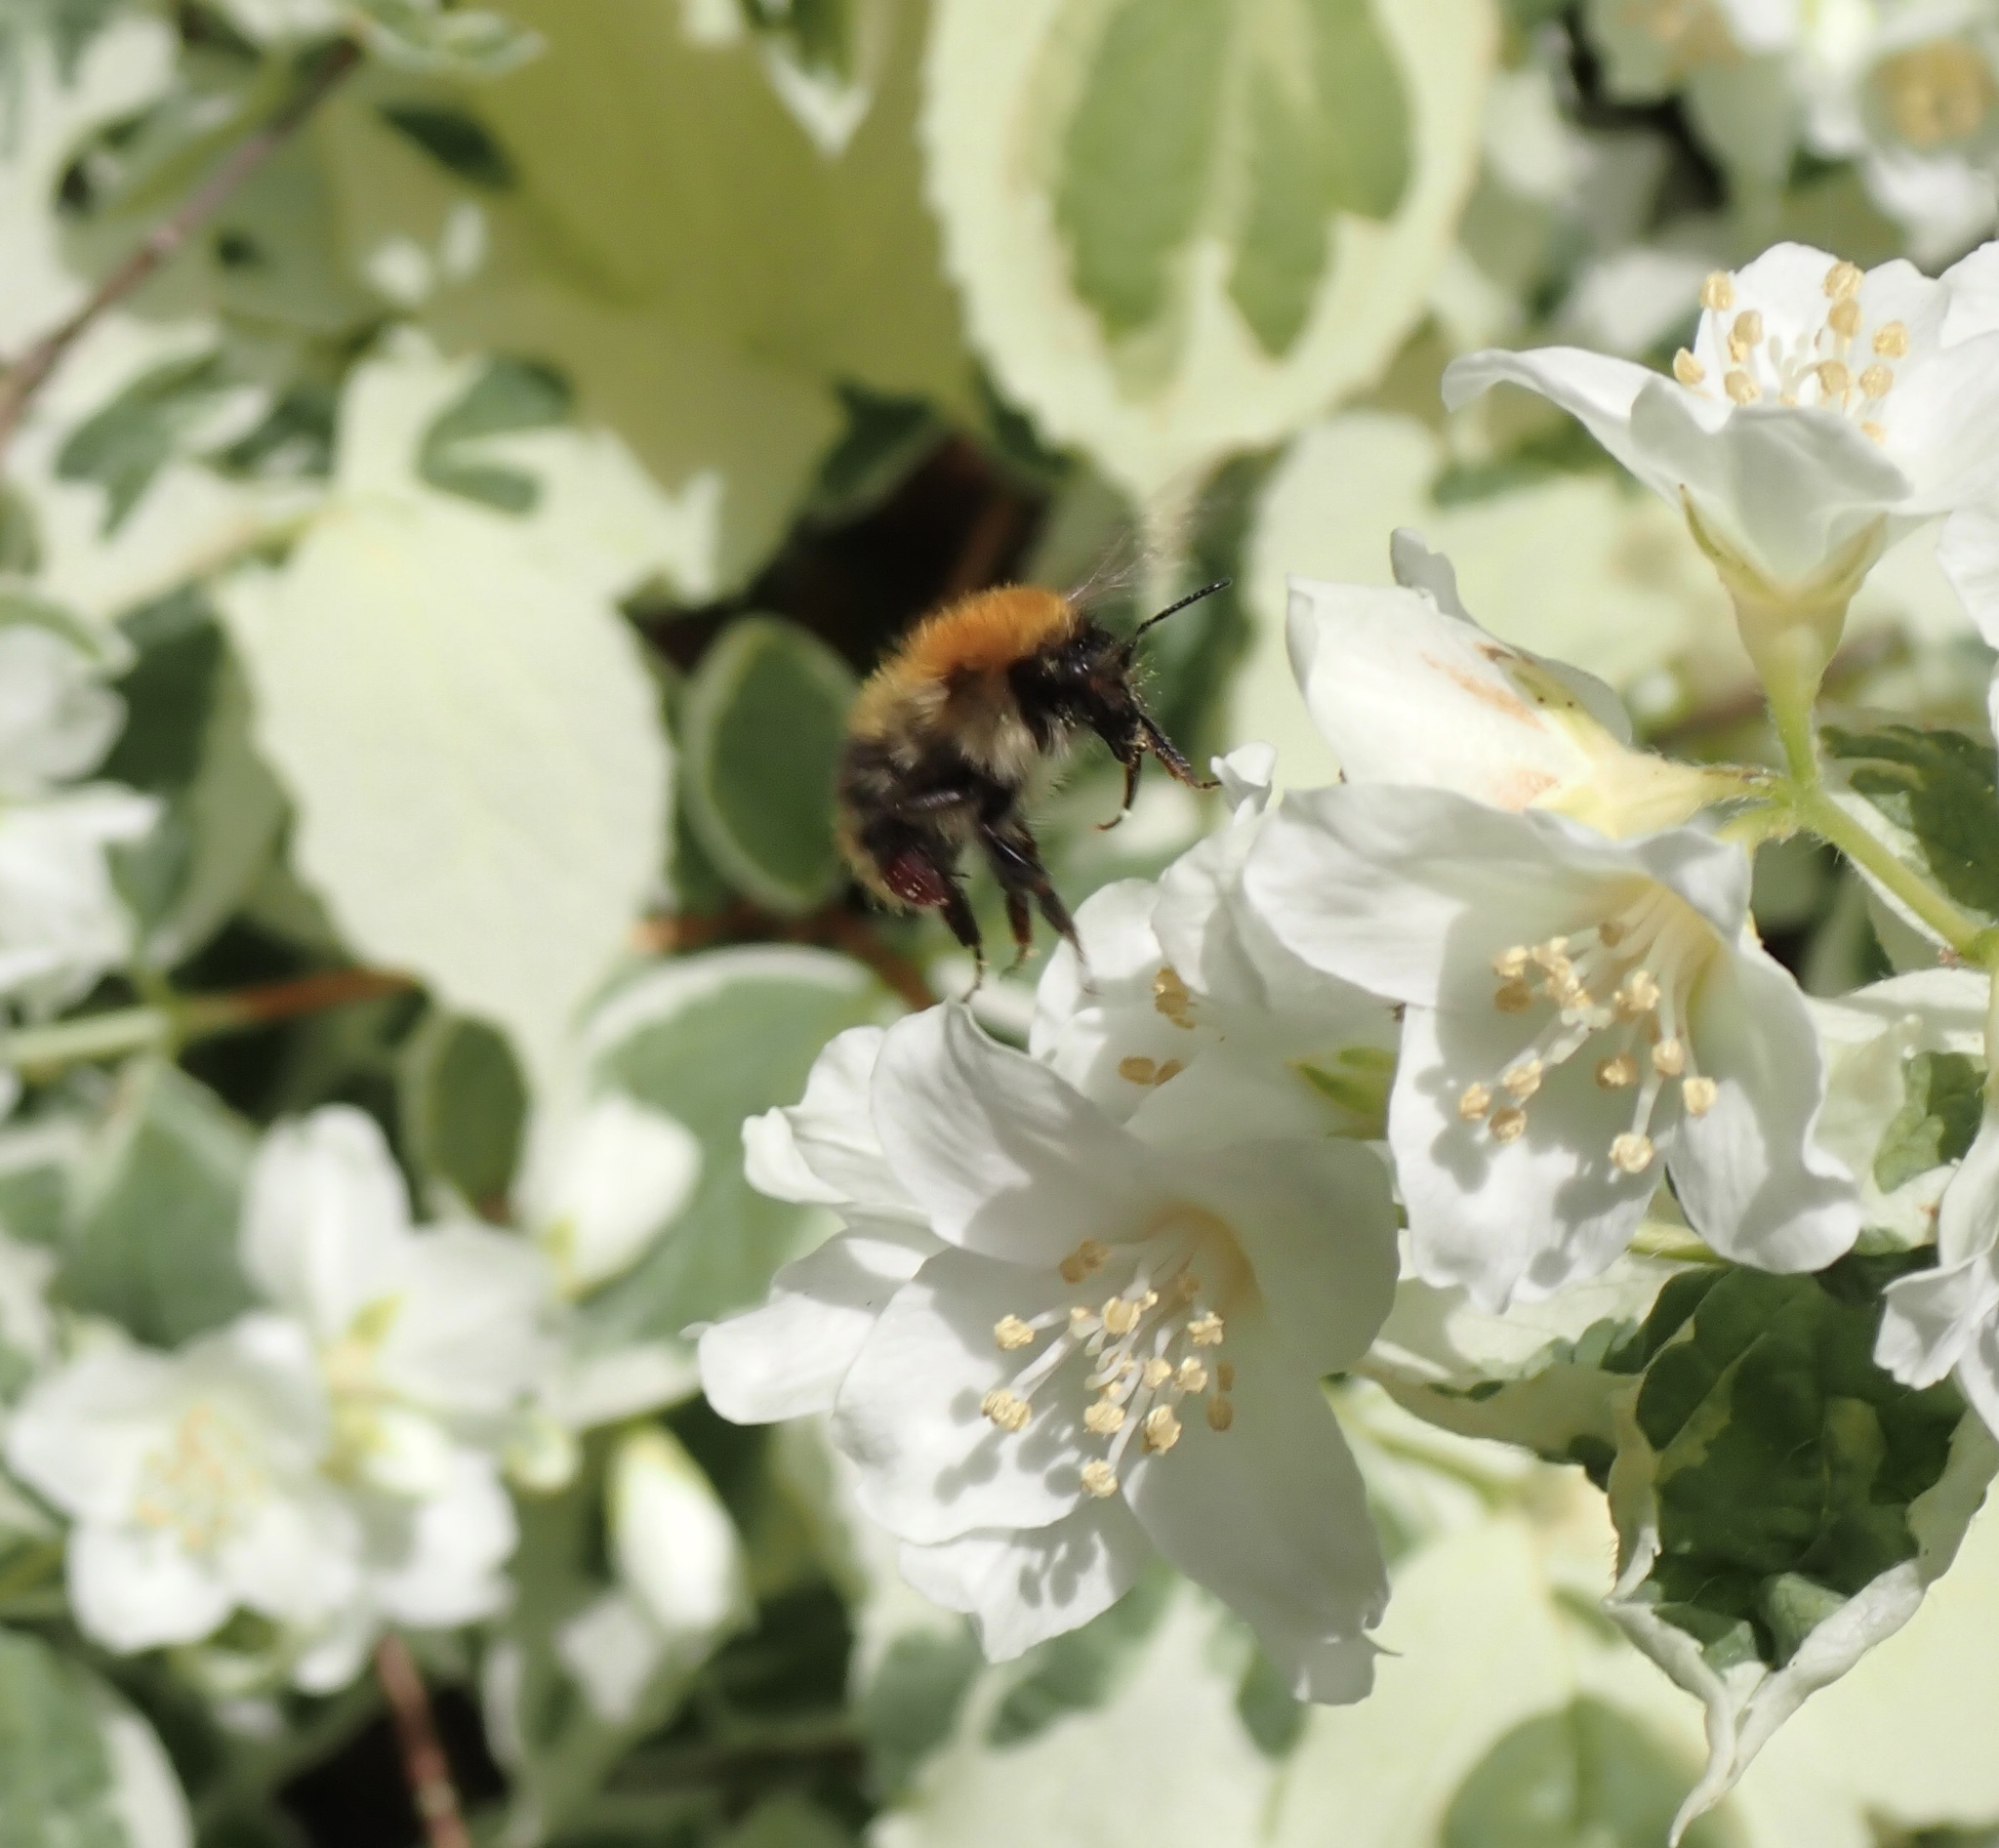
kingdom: Animalia
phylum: Arthropoda
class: Insecta
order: Hymenoptera
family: Apidae
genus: Bombus
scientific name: Bombus pascuorum
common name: Common carder bee
